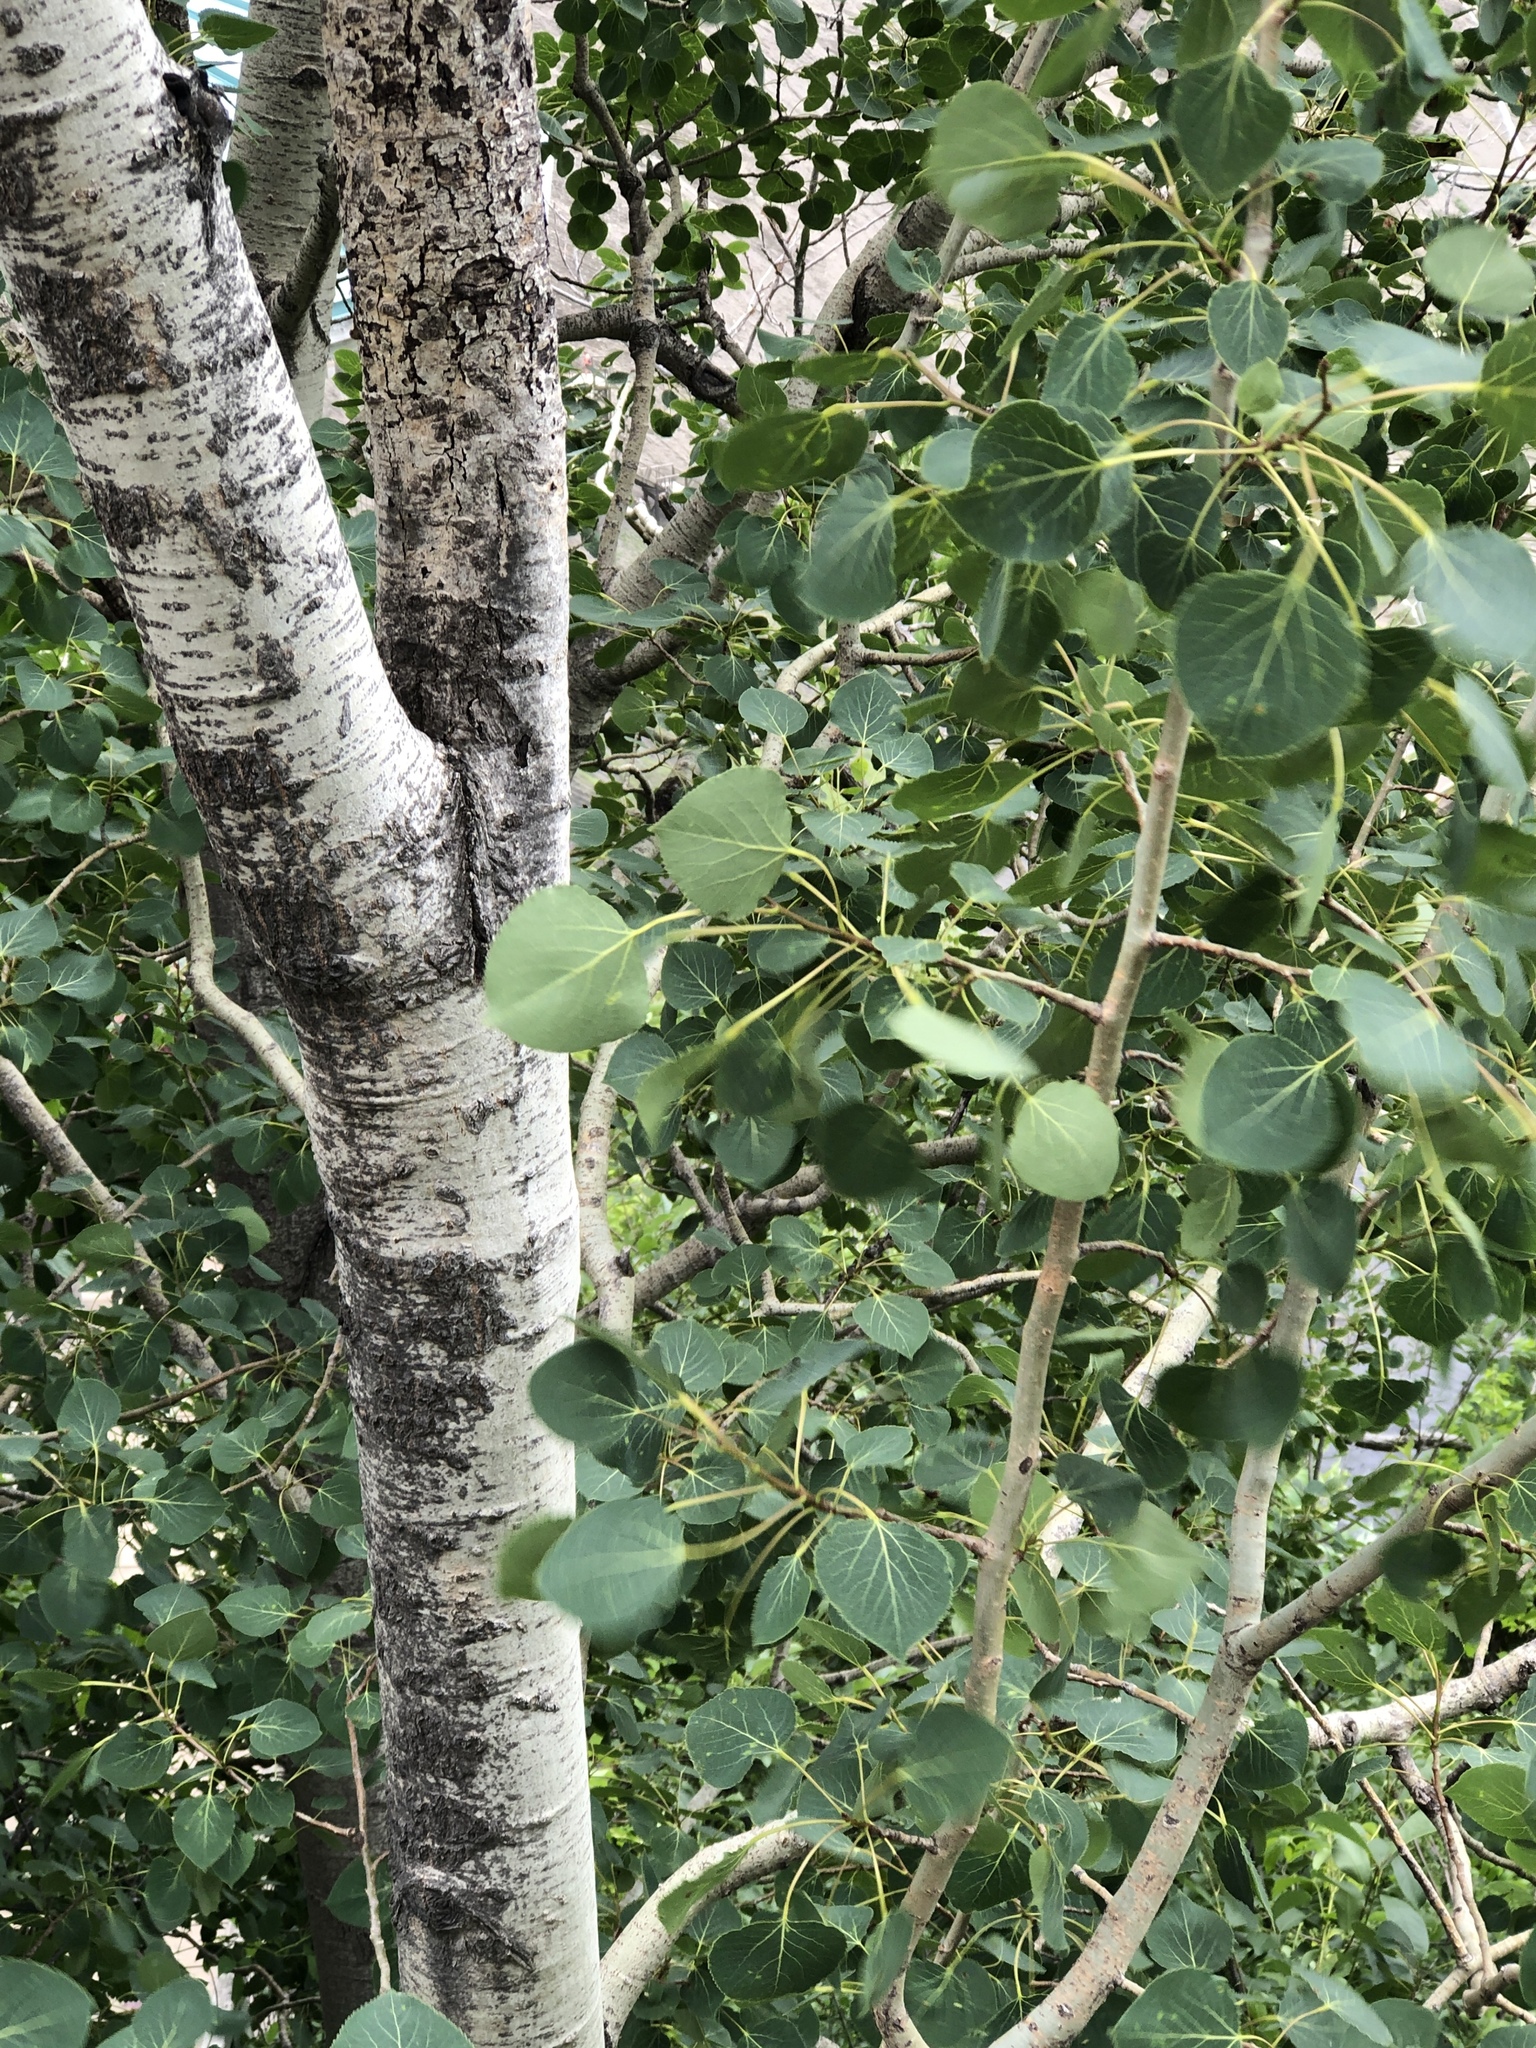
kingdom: Plantae
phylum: Tracheophyta
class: Magnoliopsida
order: Malpighiales
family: Salicaceae
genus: Populus
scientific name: Populus tremuloides
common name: Quaking aspen
